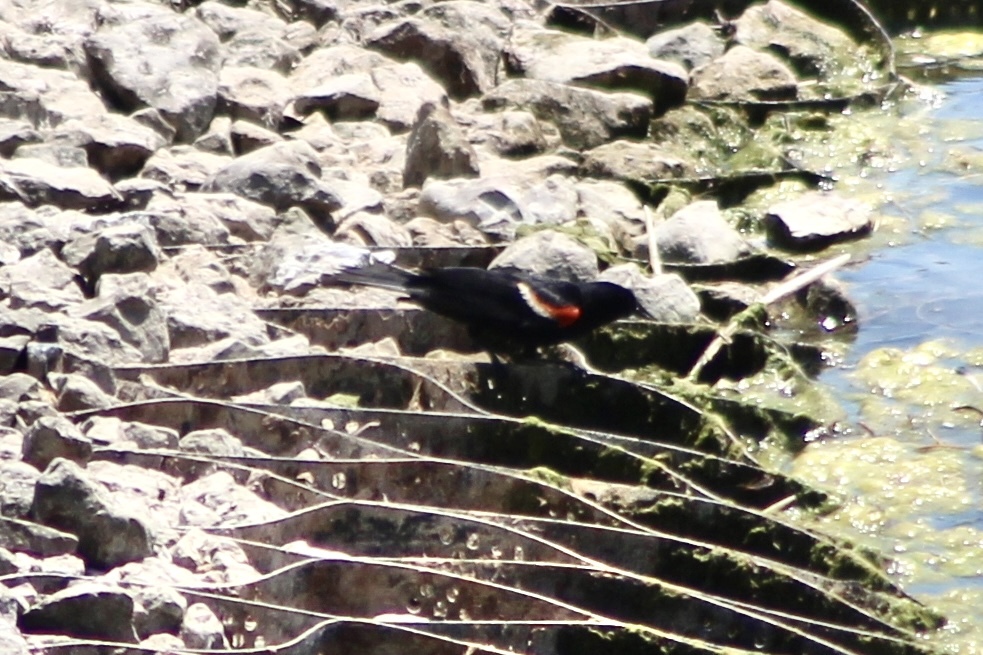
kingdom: Animalia
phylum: Chordata
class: Aves
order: Passeriformes
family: Icteridae
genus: Agelaius
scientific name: Agelaius phoeniceus
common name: Red-winged blackbird
